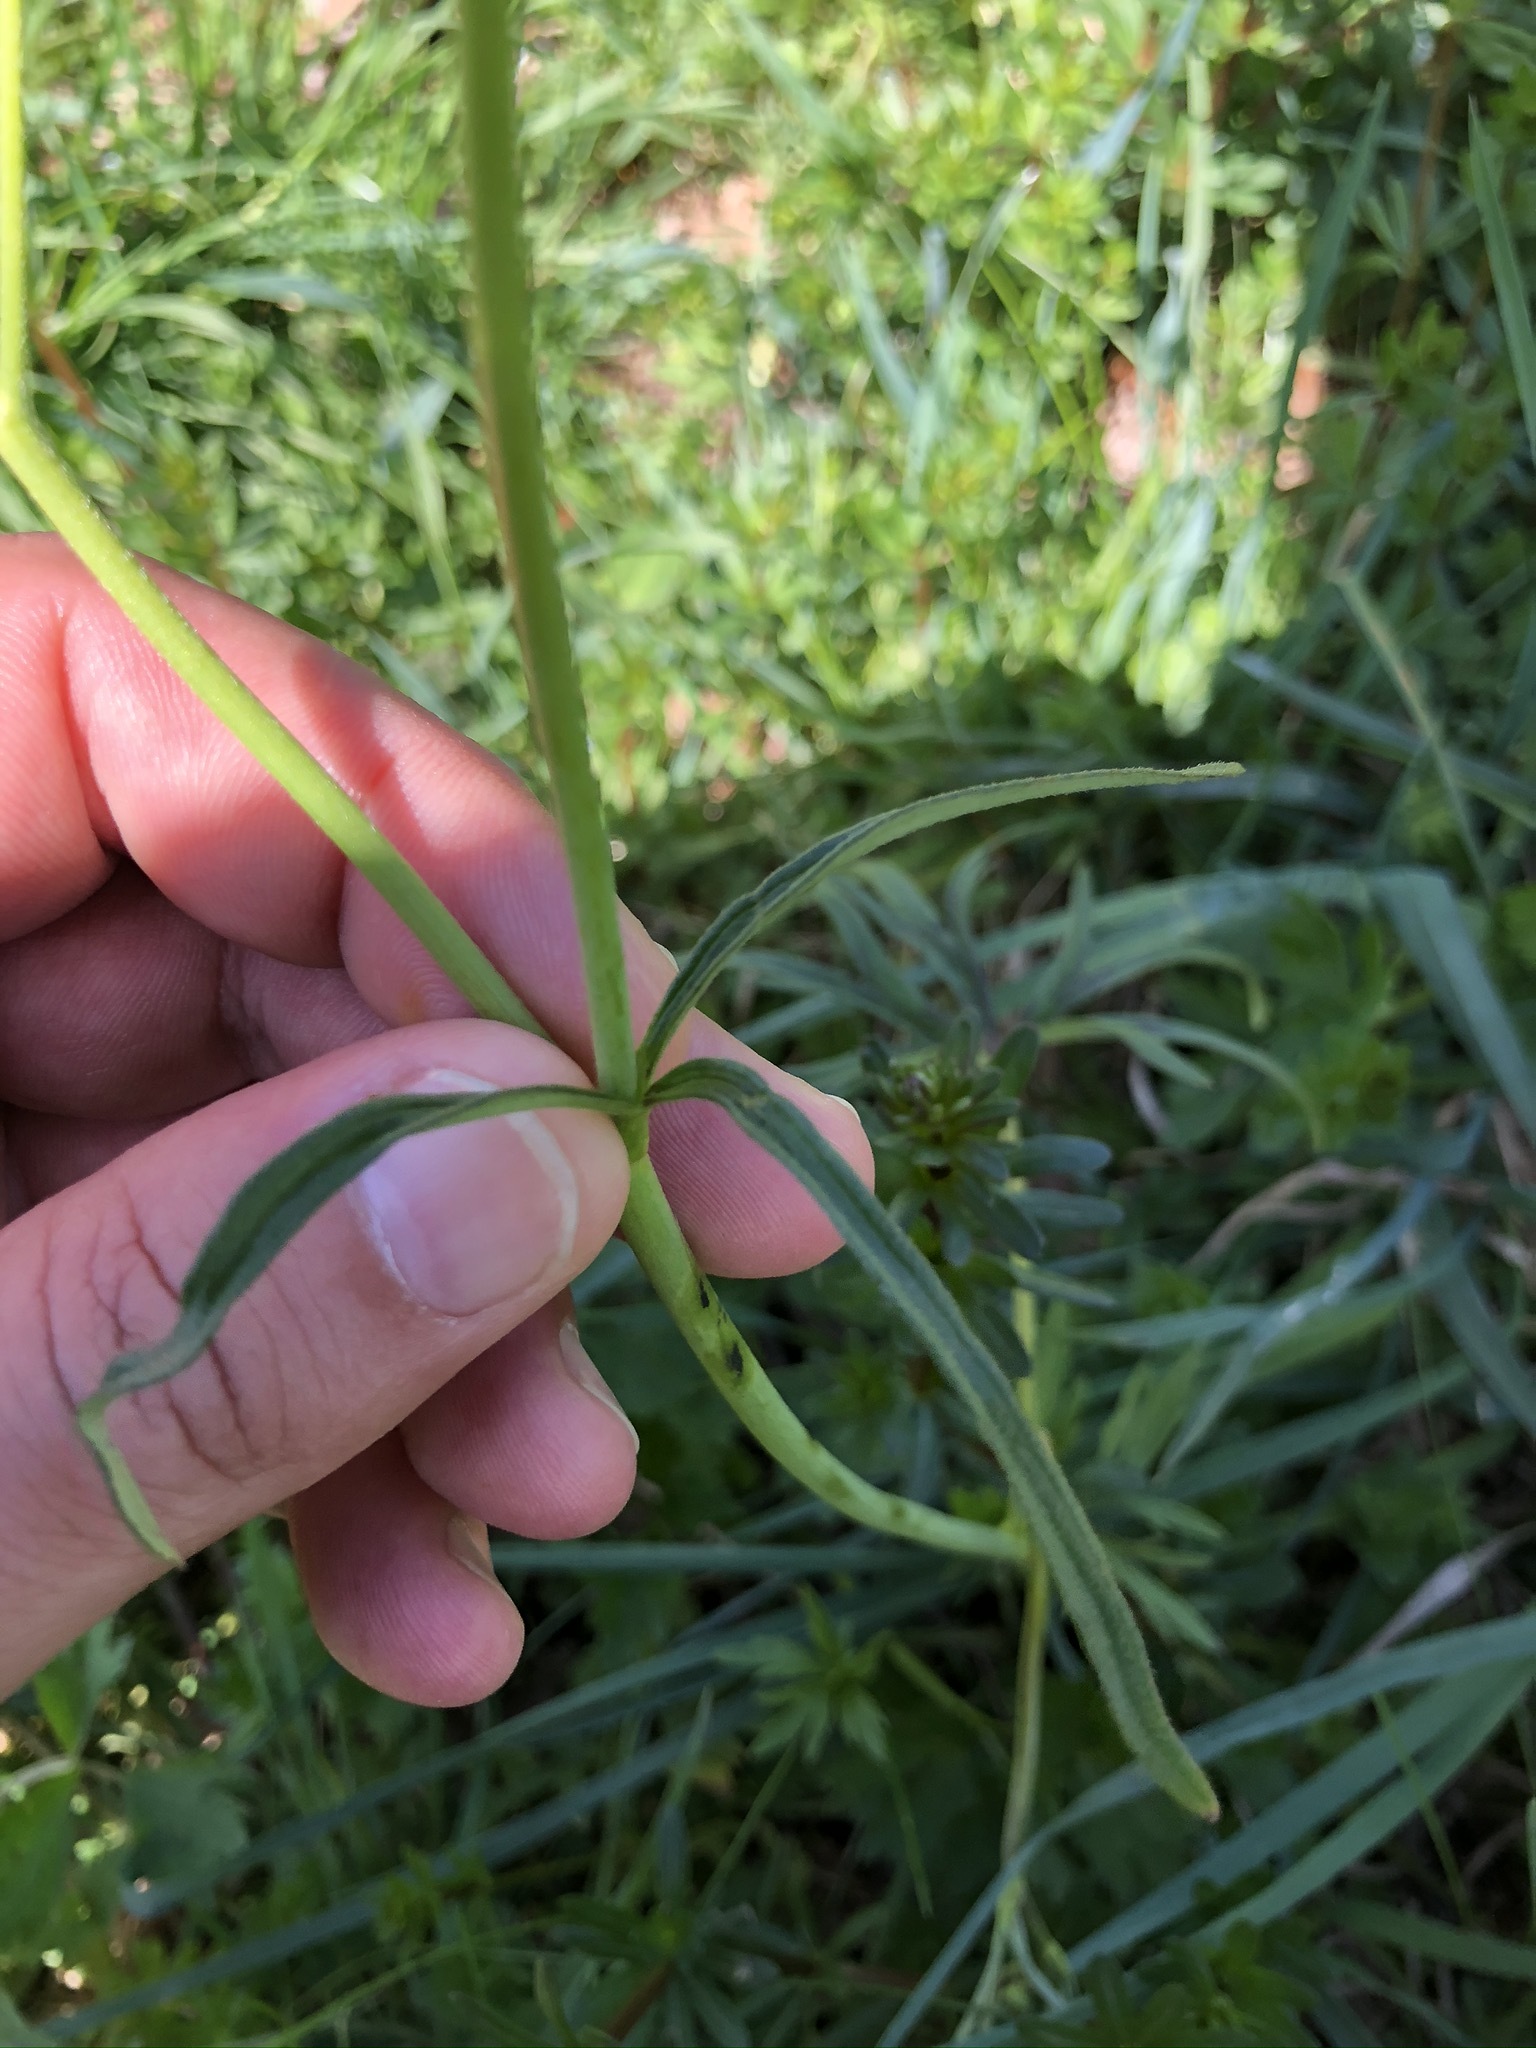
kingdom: Plantae
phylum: Tracheophyta
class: Magnoliopsida
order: Ranunculales
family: Ranunculaceae
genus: Ranunculus
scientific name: Ranunculus acris
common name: Meadow buttercup
